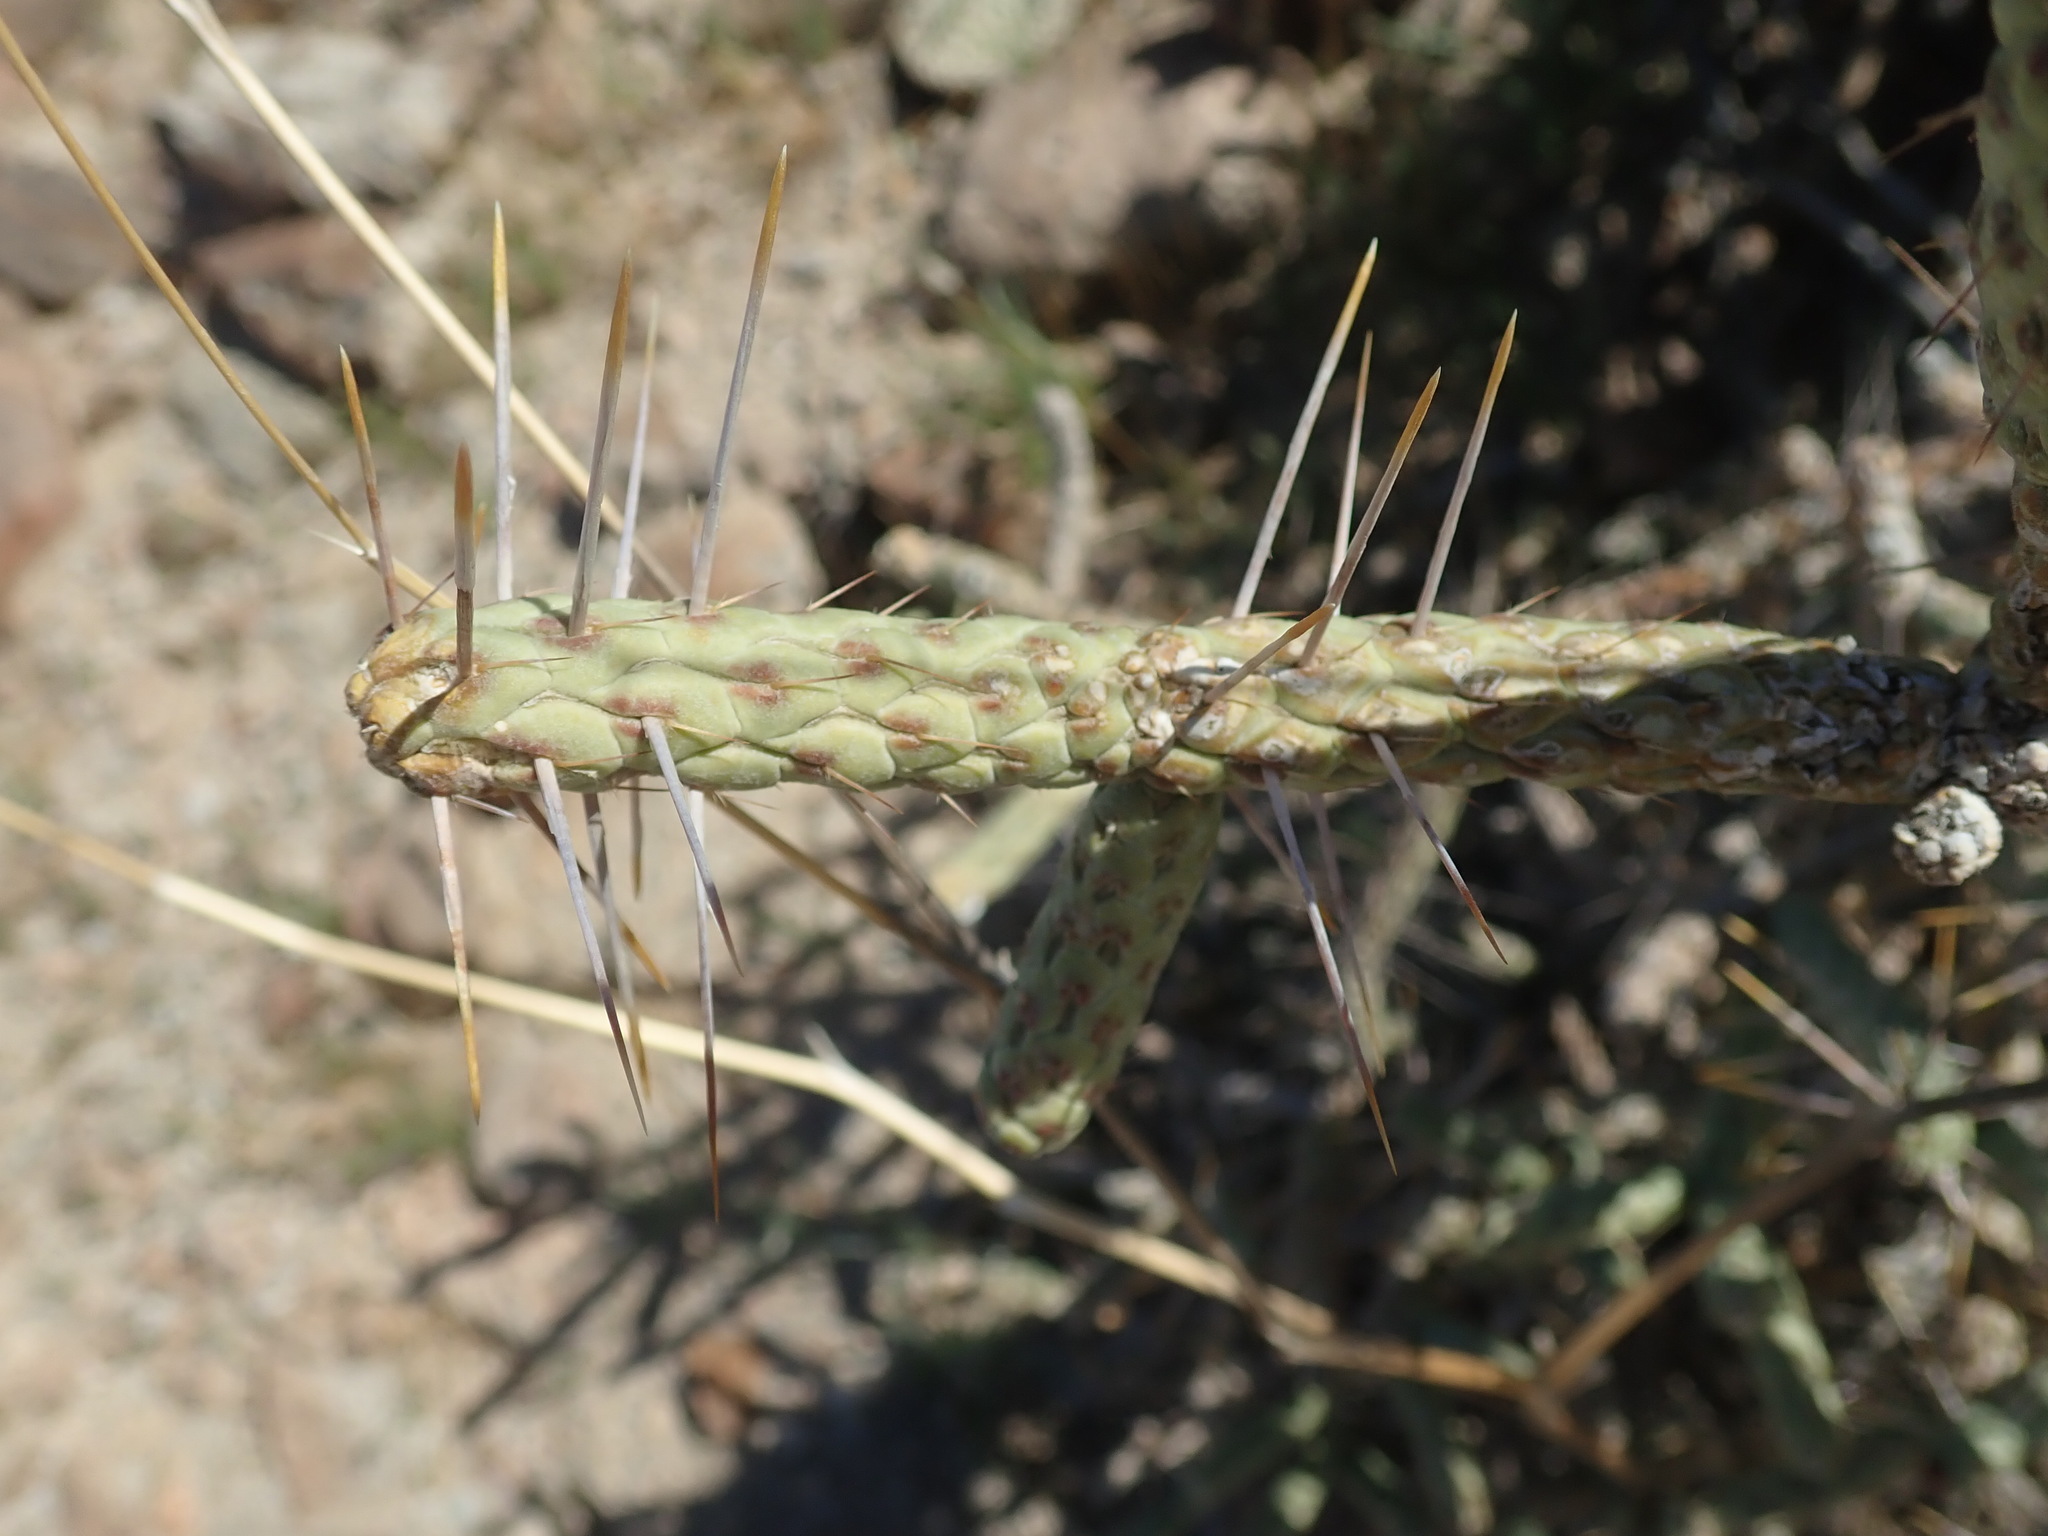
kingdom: Plantae
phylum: Tracheophyta
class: Magnoliopsida
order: Caryophyllales
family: Cactaceae
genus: Cylindropuntia
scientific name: Cylindropuntia ramosissima
